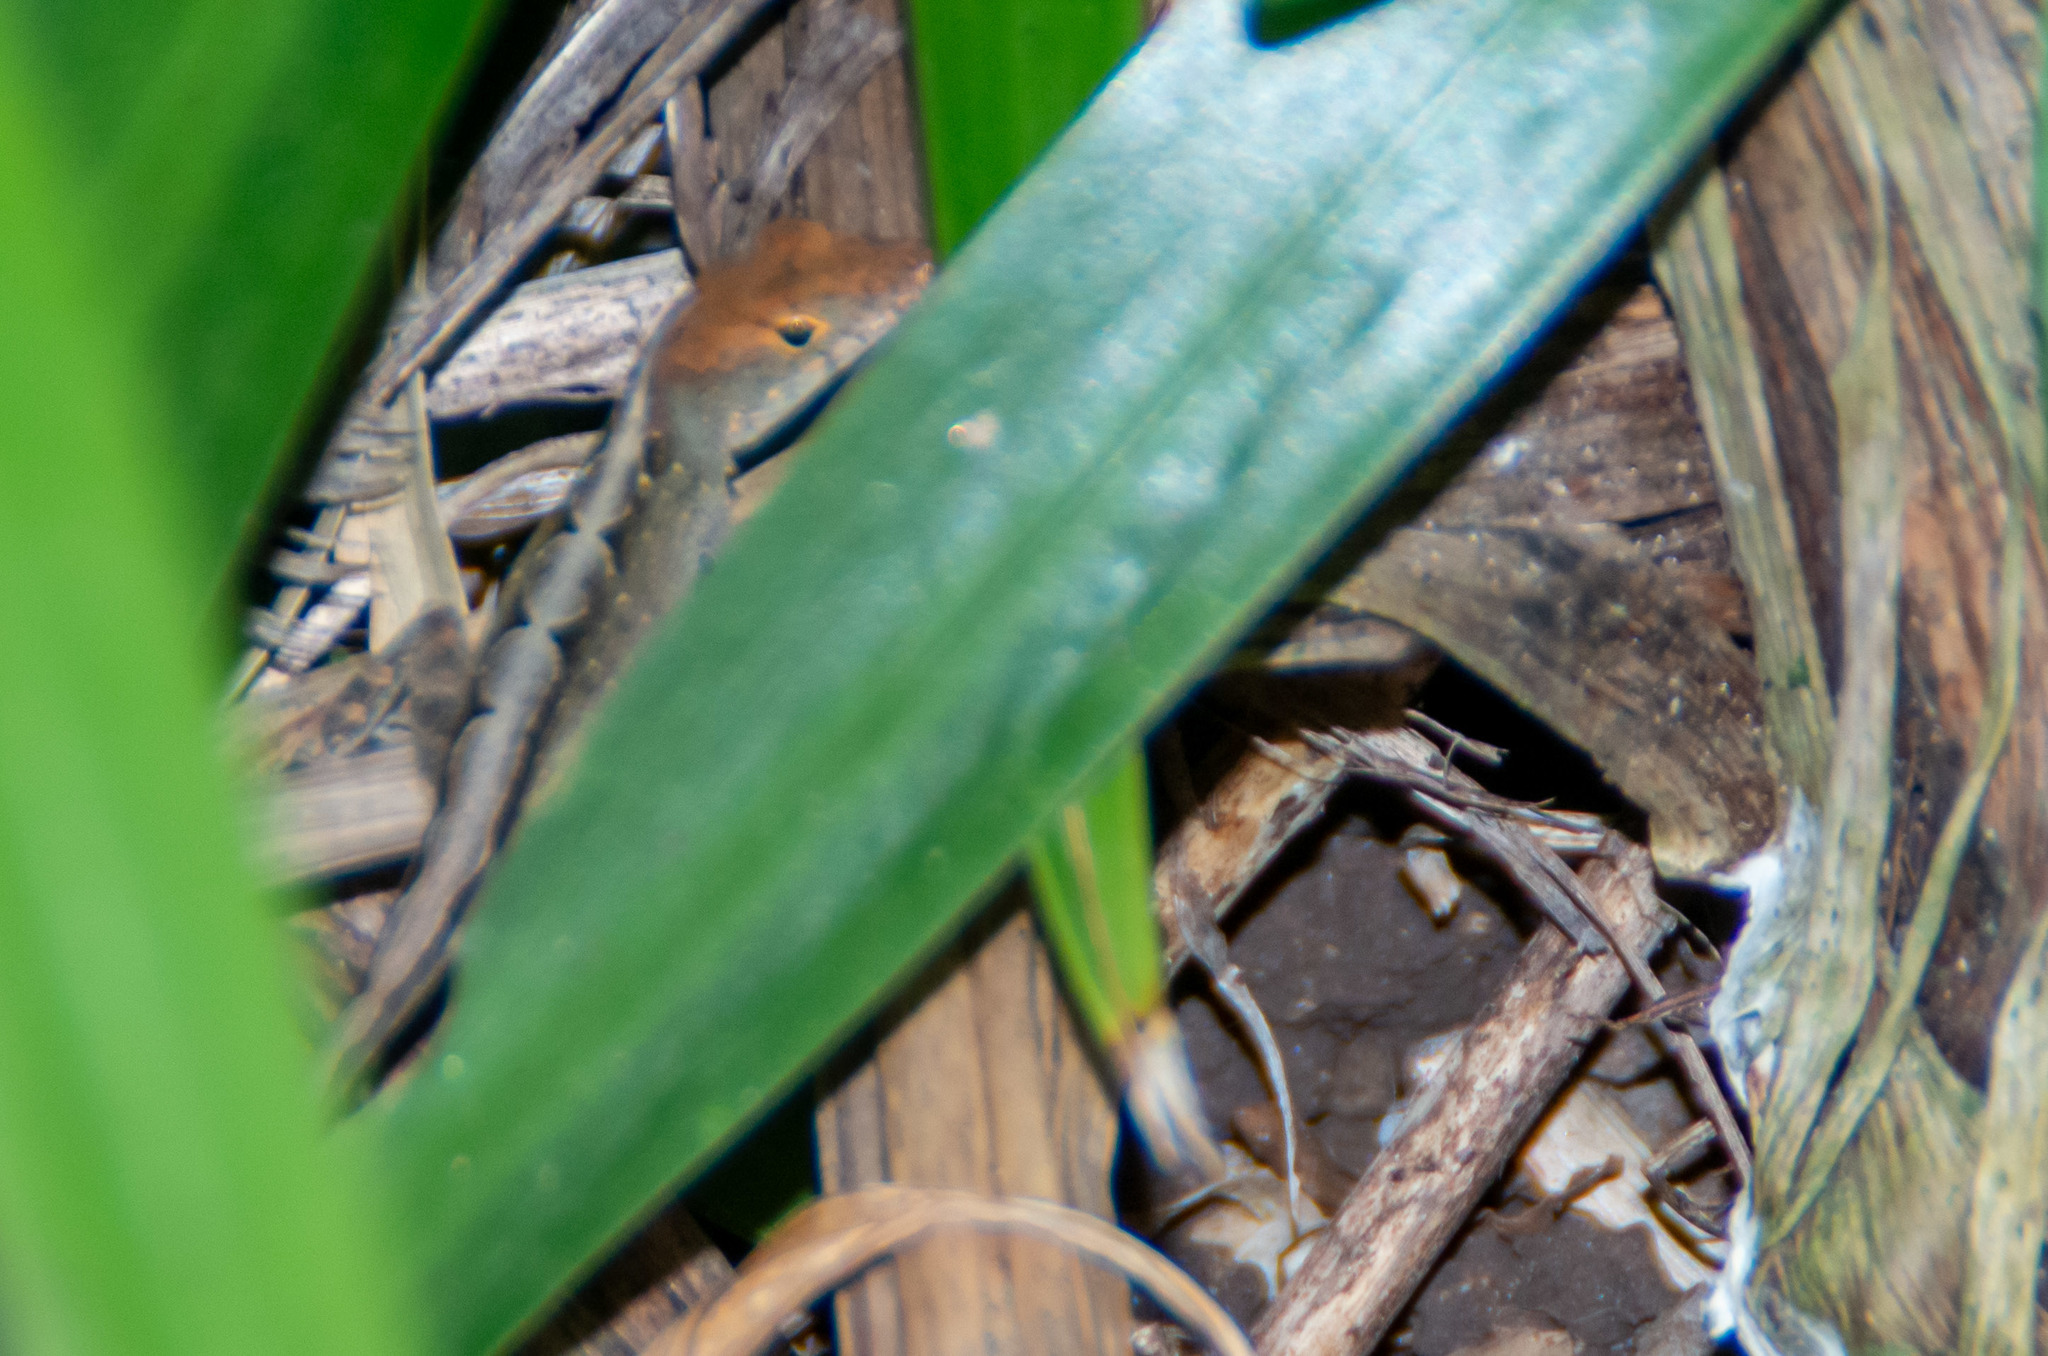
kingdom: Animalia
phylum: Chordata
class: Squamata
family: Dactyloidae
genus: Anolis
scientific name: Anolis sagrei
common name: Brown anole
